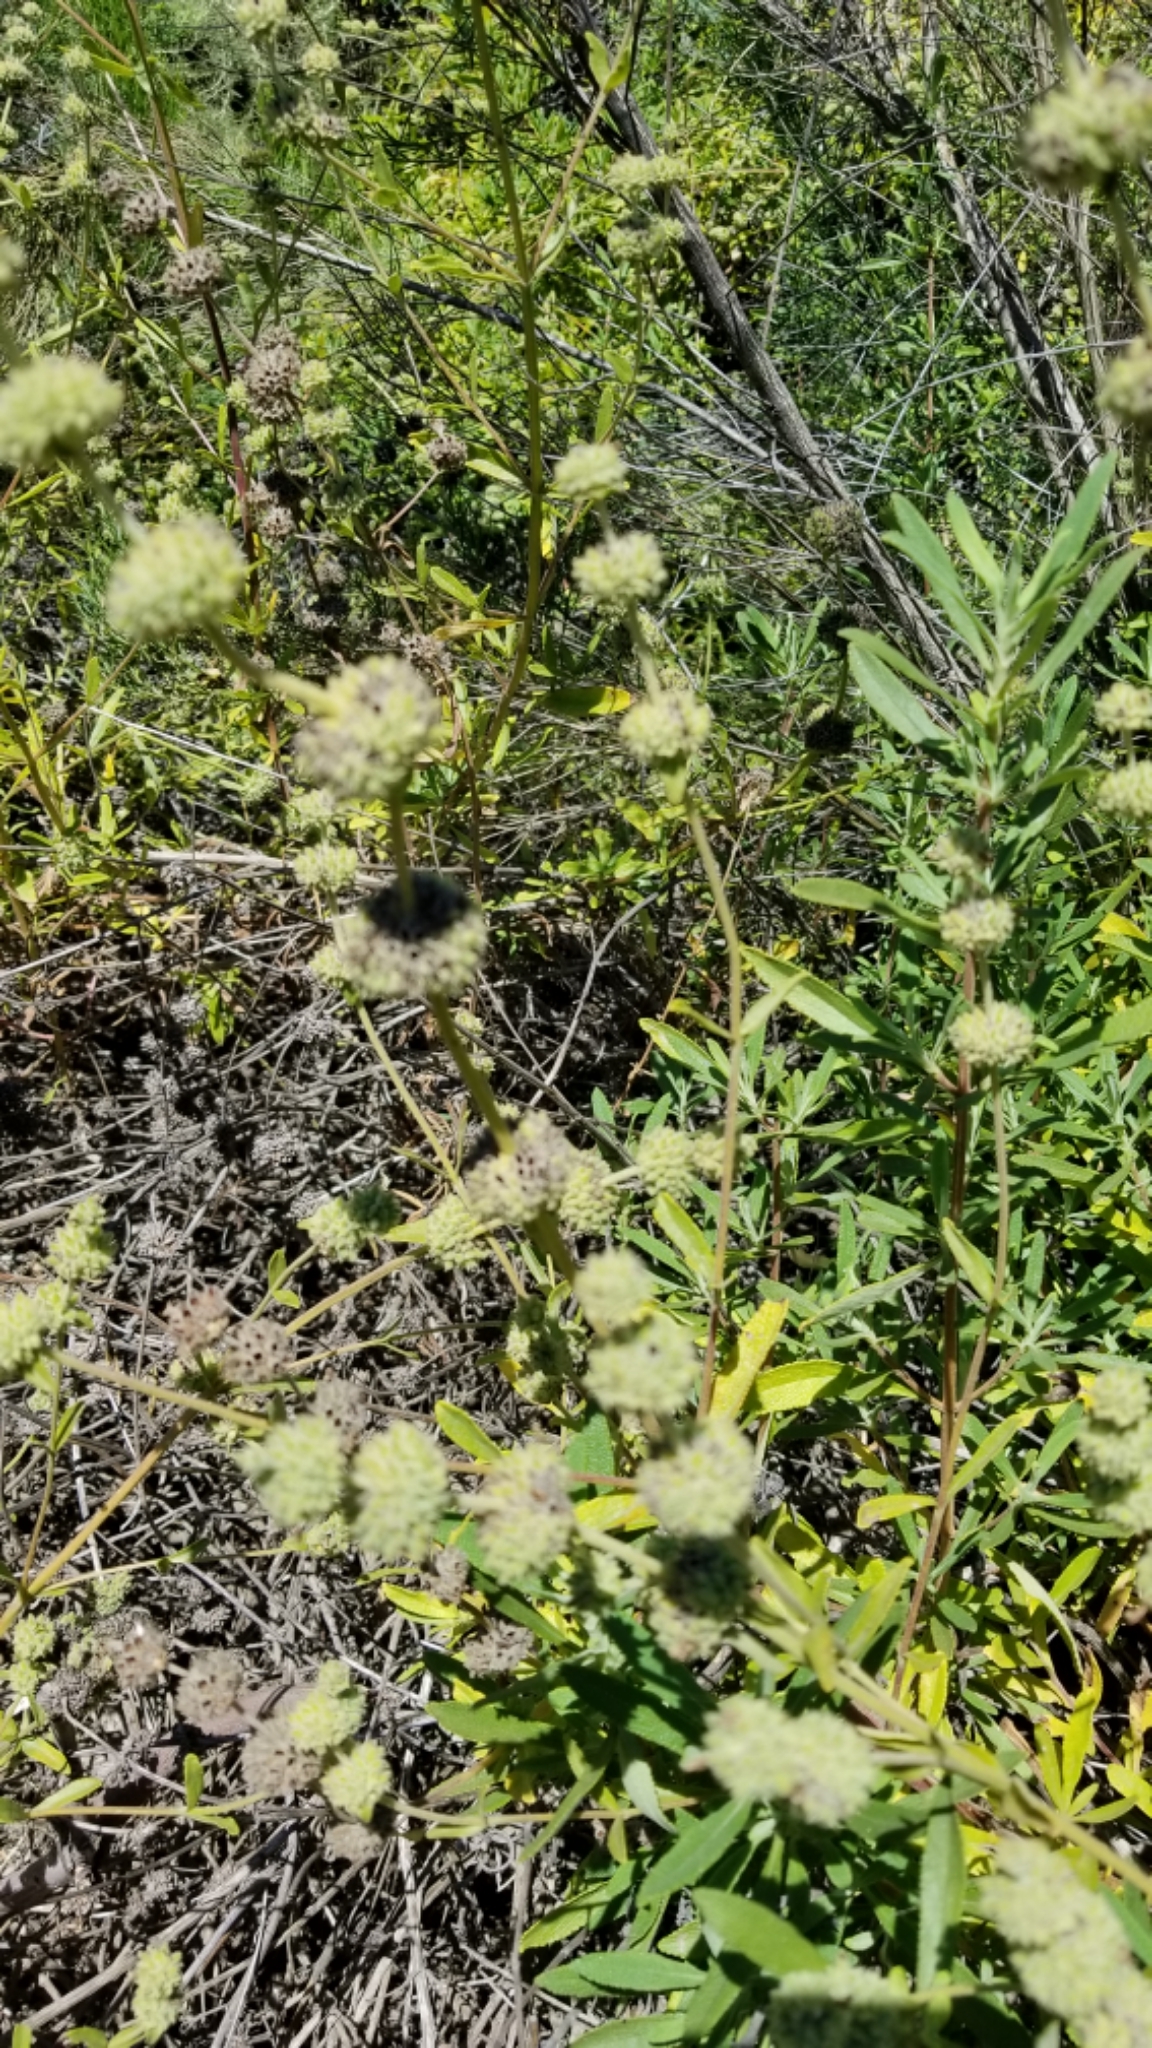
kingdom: Plantae
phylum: Tracheophyta
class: Magnoliopsida
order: Lamiales
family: Lamiaceae
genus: Salvia
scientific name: Salvia mellifera
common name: Black sage
